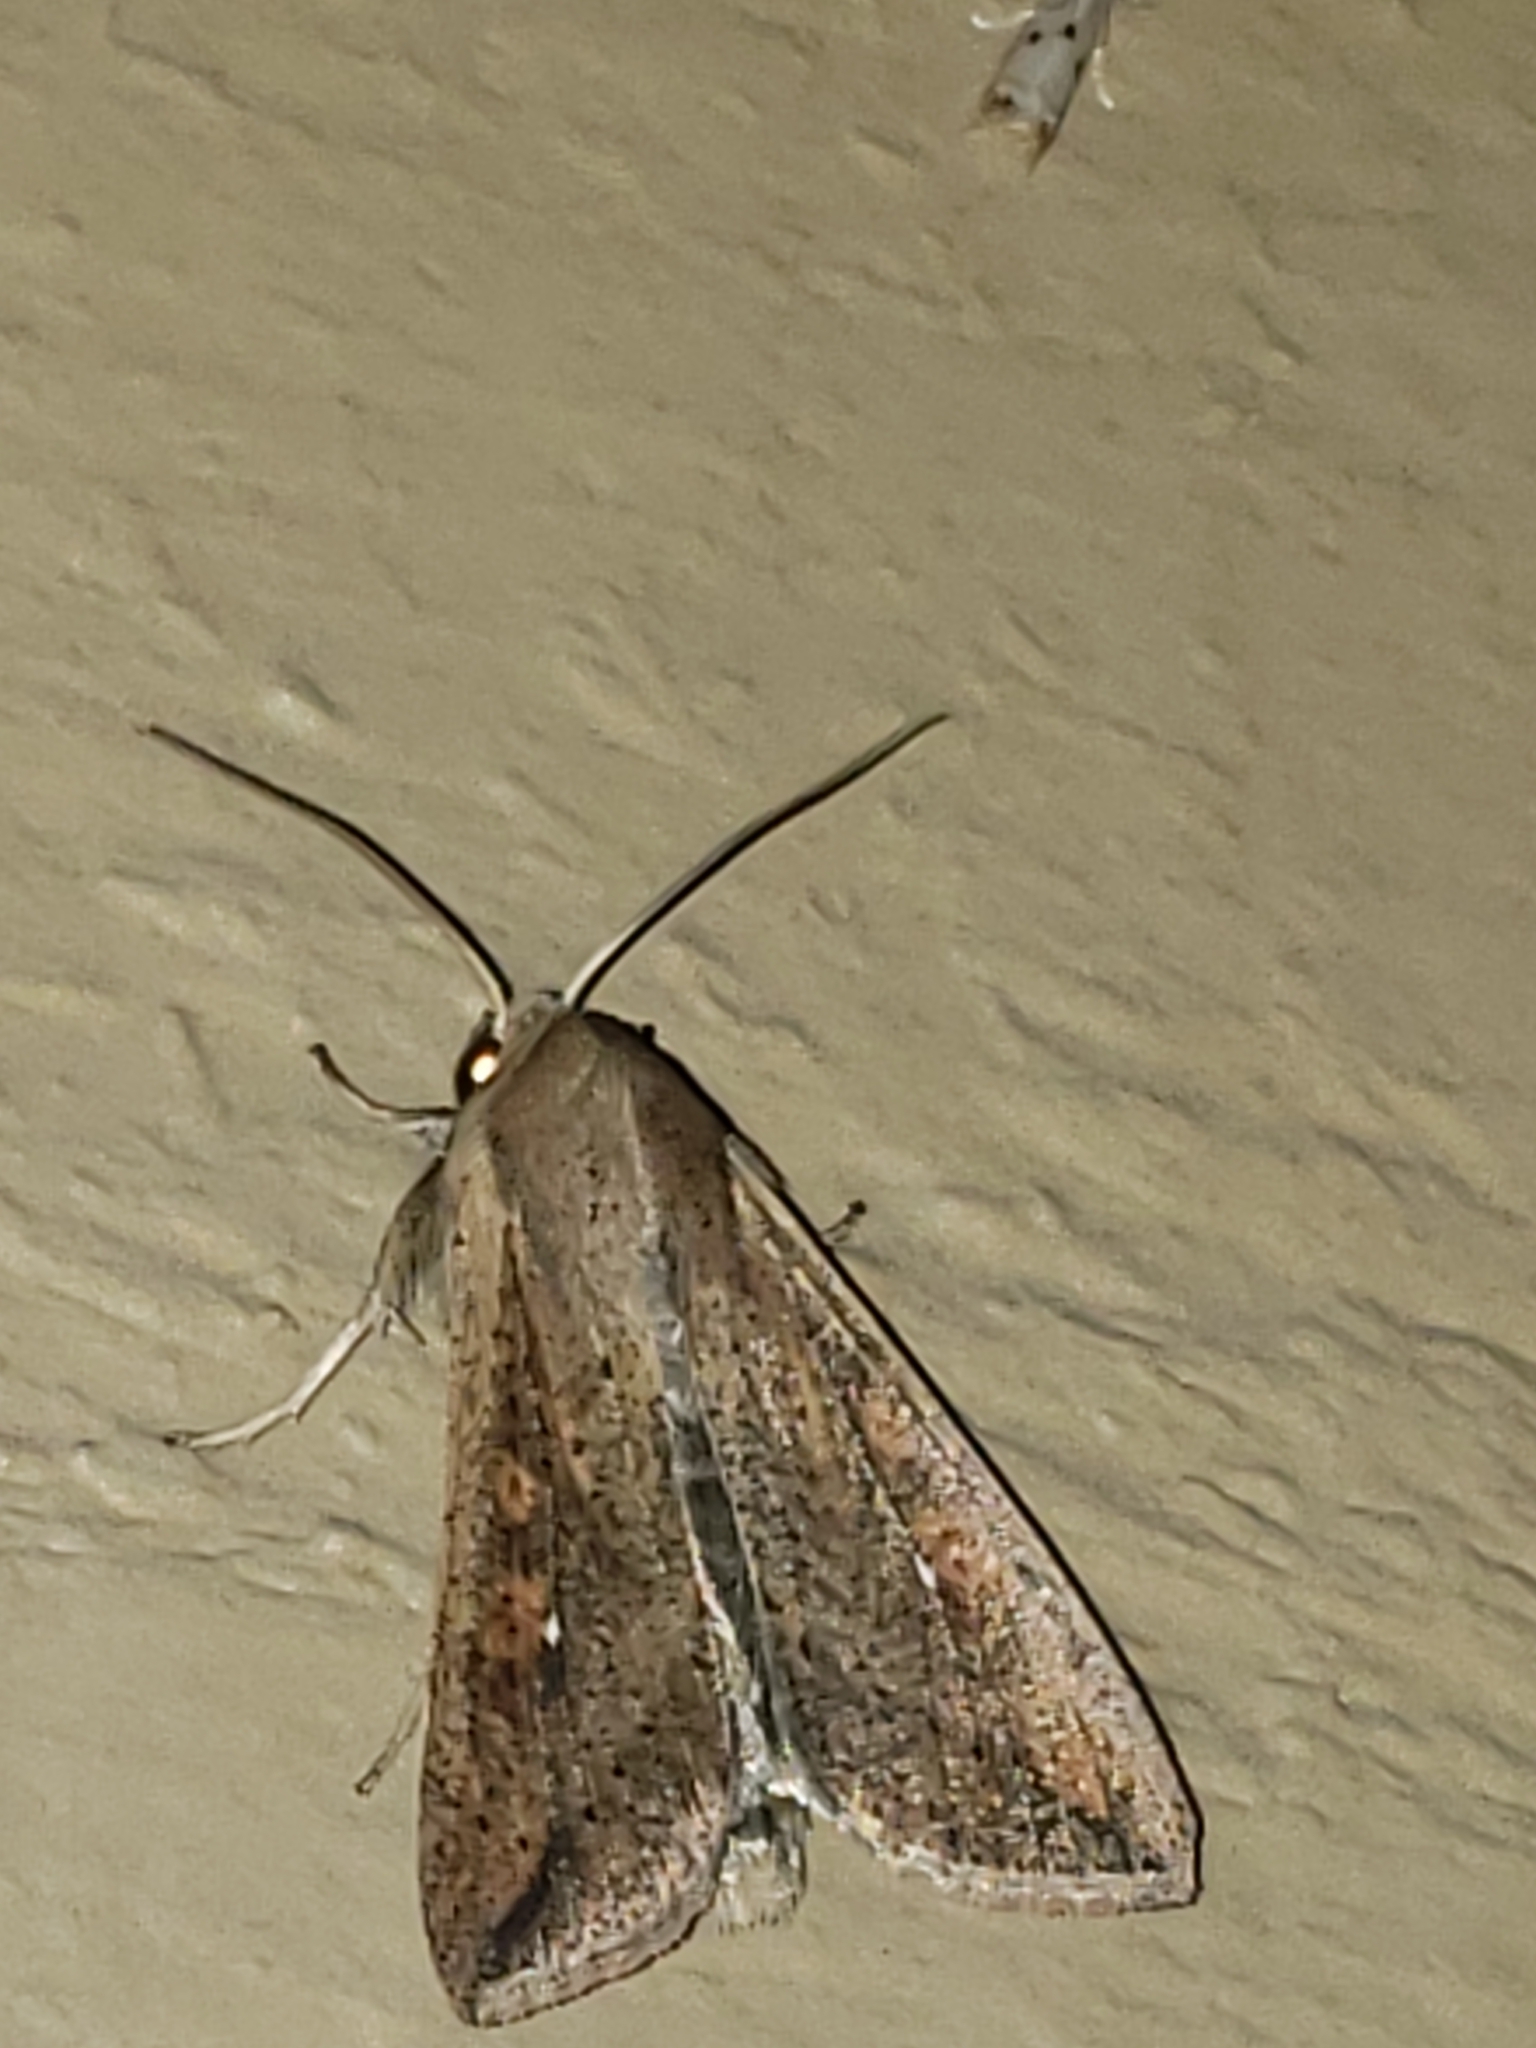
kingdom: Animalia
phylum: Arthropoda
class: Insecta
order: Lepidoptera
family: Noctuidae
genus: Mythimna
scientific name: Mythimna unipuncta
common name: White-speck
